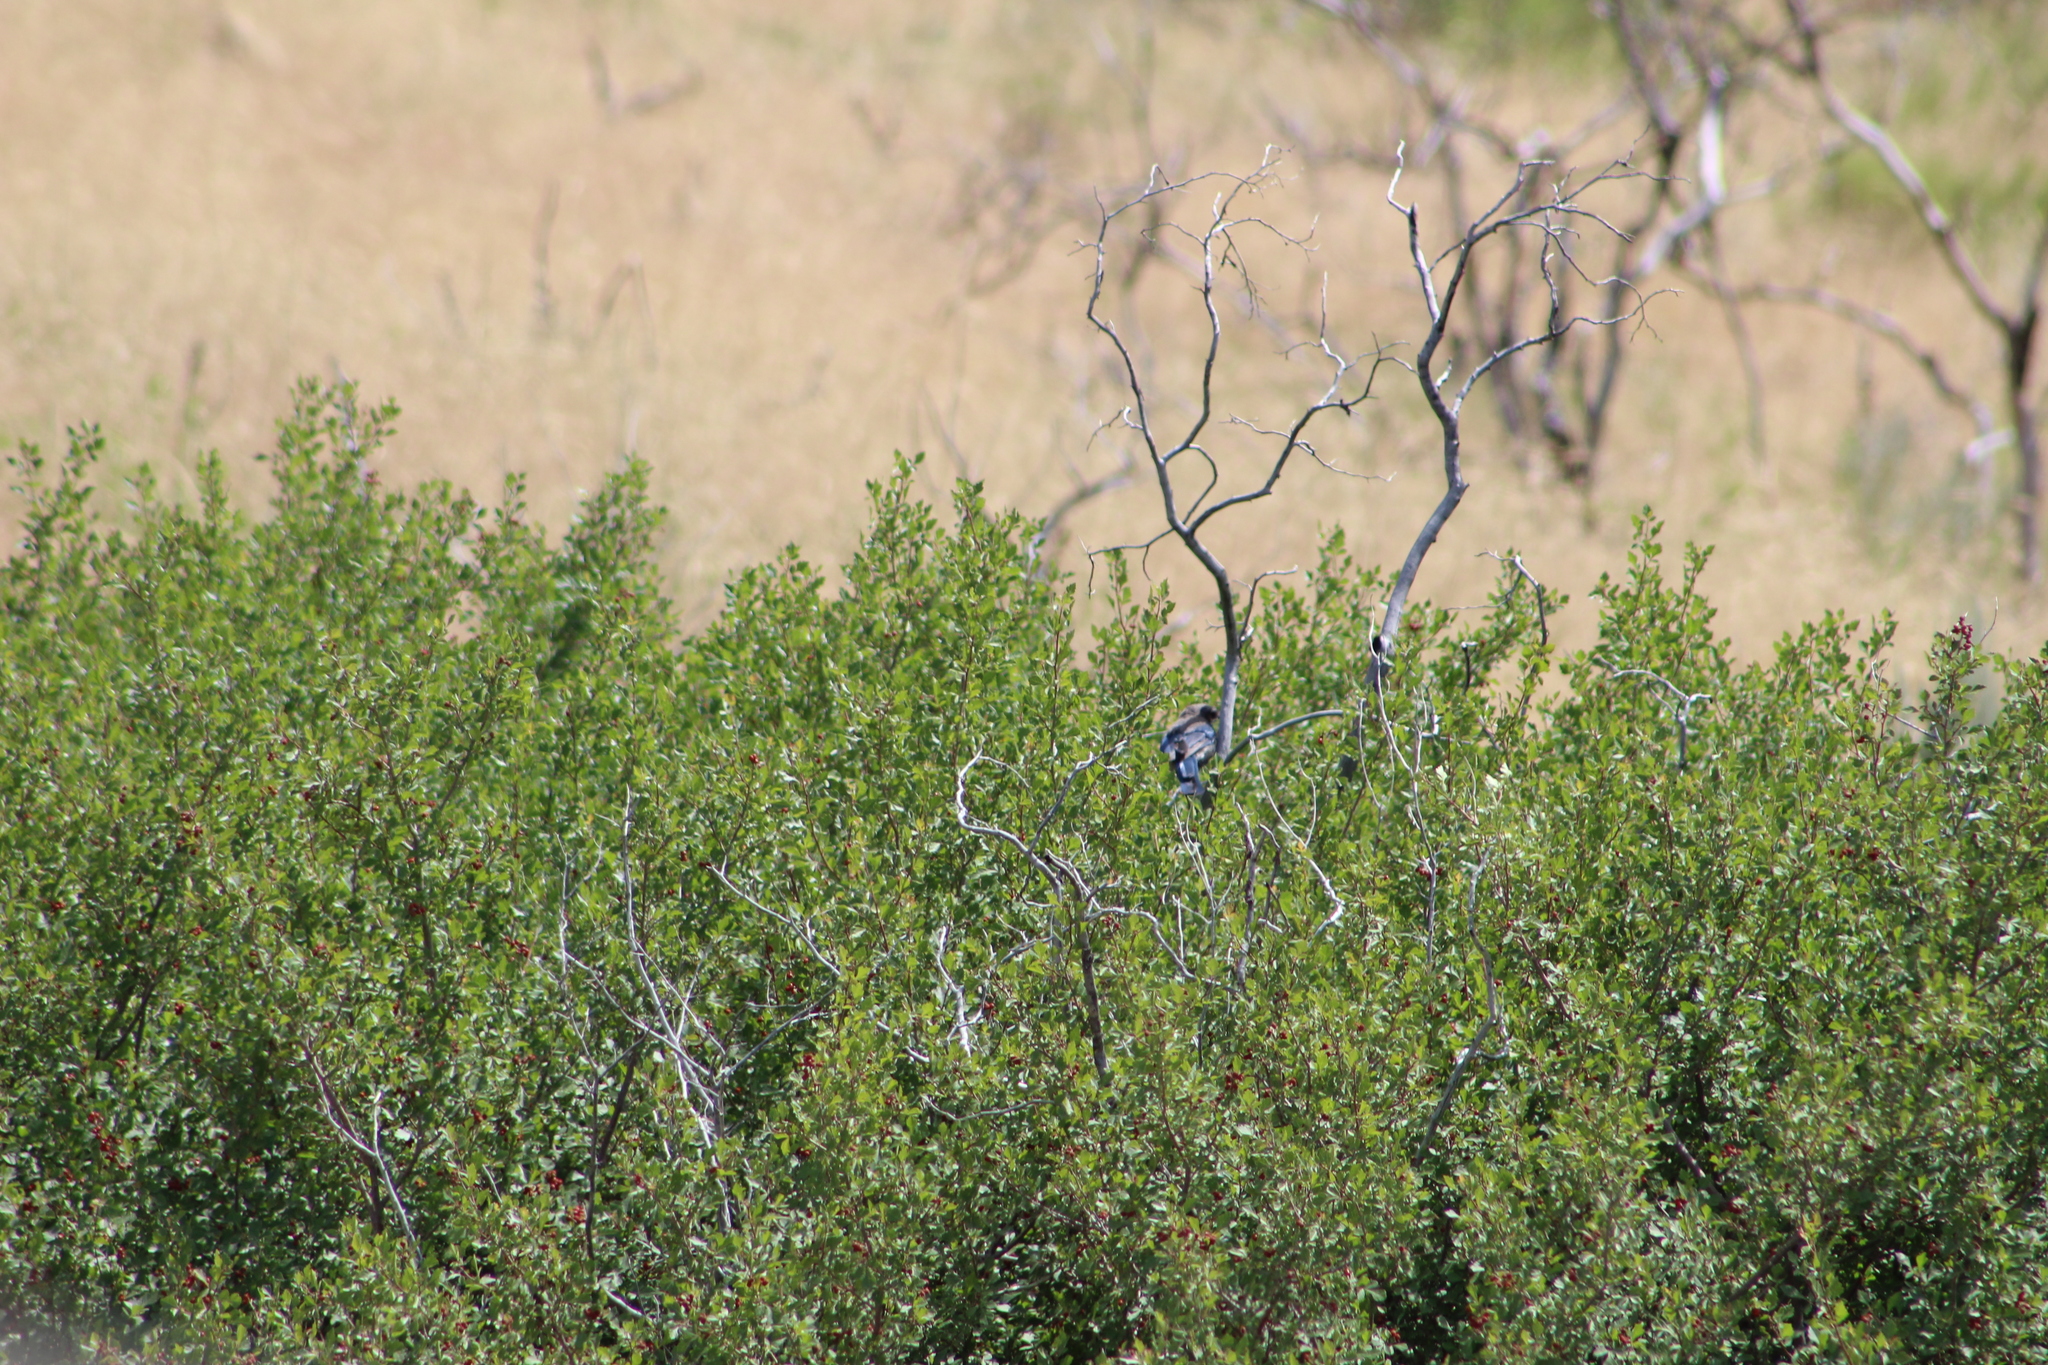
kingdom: Animalia
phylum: Chordata
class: Aves
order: Passeriformes
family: Corvidae
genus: Aphelocoma
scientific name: Aphelocoma woodhouseii
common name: Woodhouse's scrub-jay
